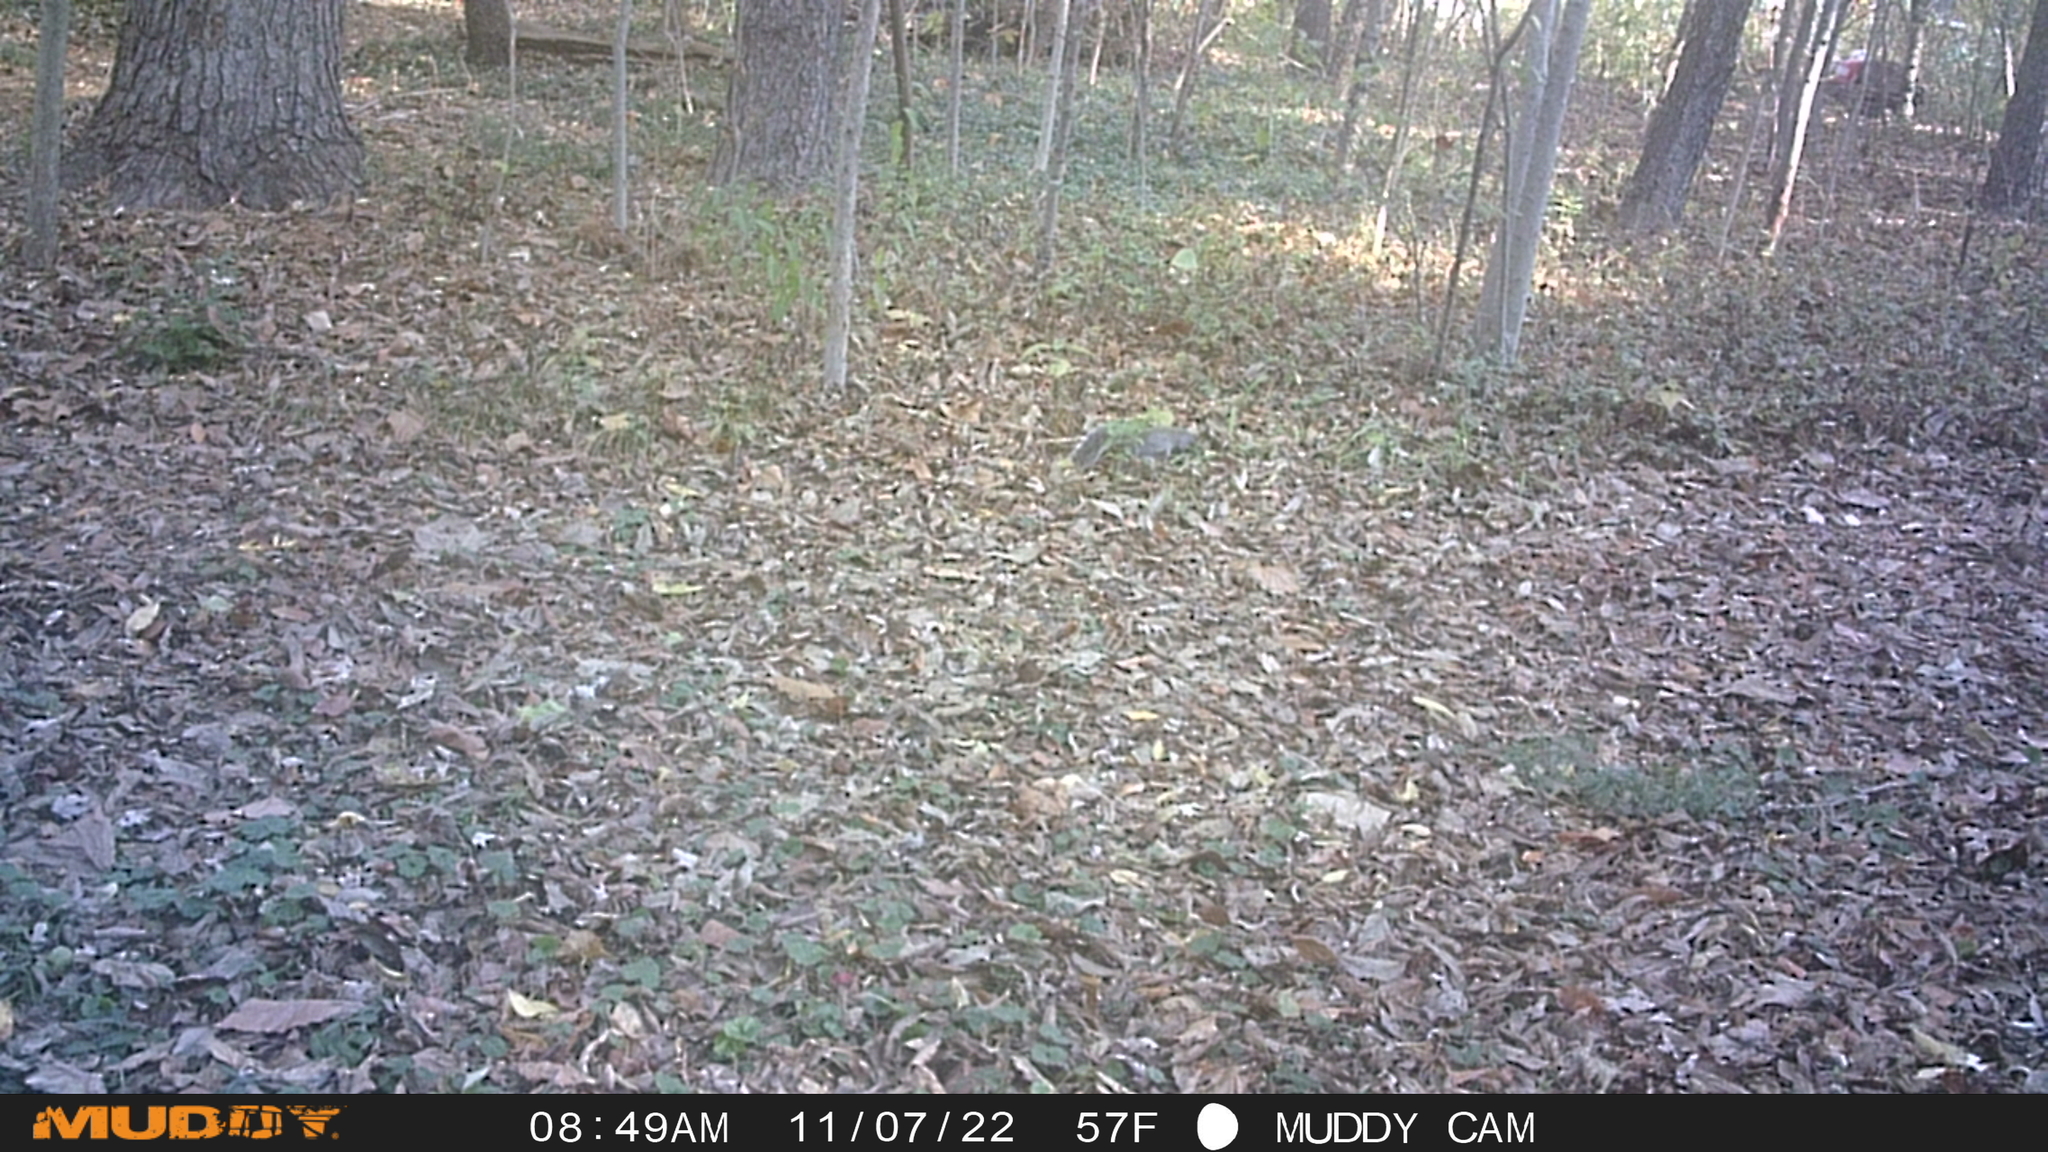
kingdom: Animalia
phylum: Chordata
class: Mammalia
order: Rodentia
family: Sciuridae
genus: Sciurus
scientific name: Sciurus carolinensis
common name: Eastern gray squirrel
